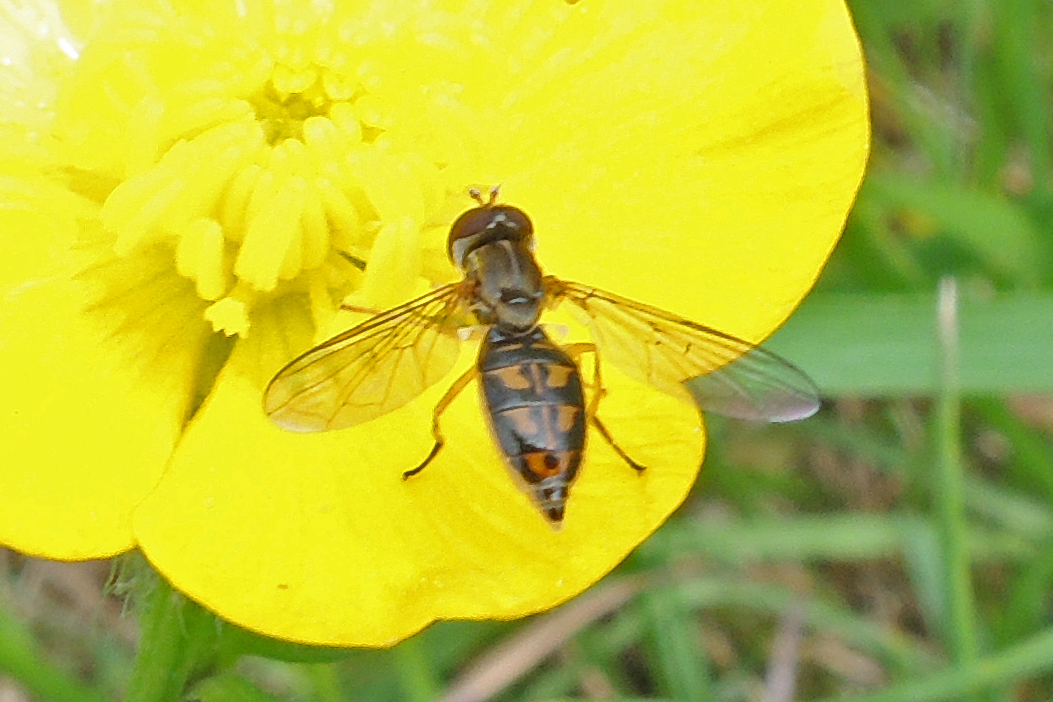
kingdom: Animalia
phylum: Arthropoda
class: Insecta
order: Diptera
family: Syrphidae
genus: Toxomerus
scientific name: Toxomerus marginatus
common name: Syrphid fly
